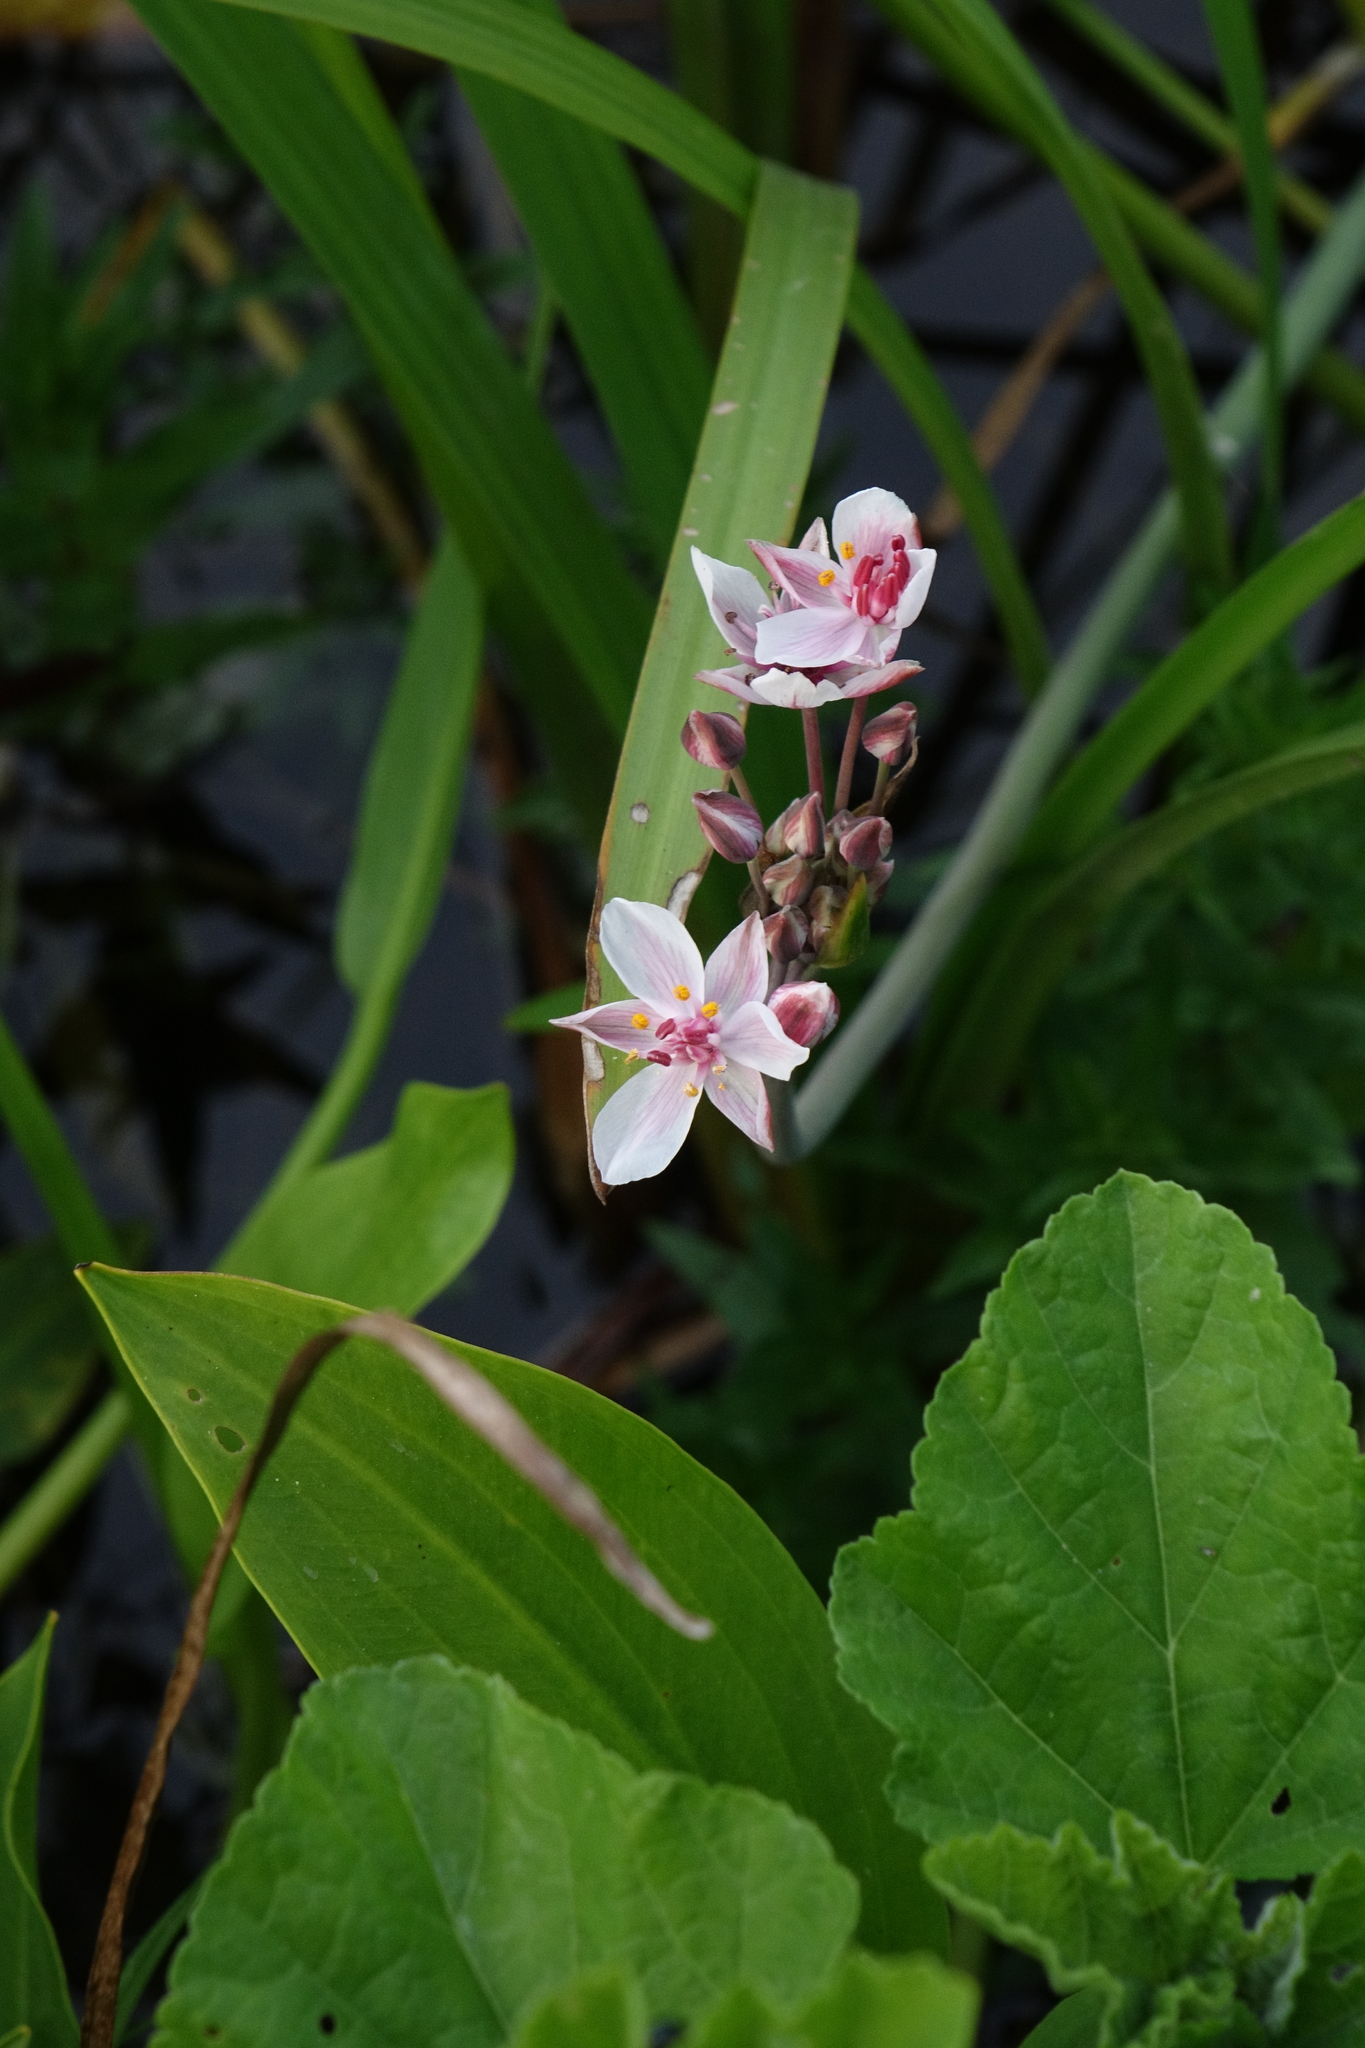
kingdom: Plantae
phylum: Tracheophyta
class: Liliopsida
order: Alismatales
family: Butomaceae
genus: Butomus
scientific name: Butomus umbellatus
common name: Flowering-rush
